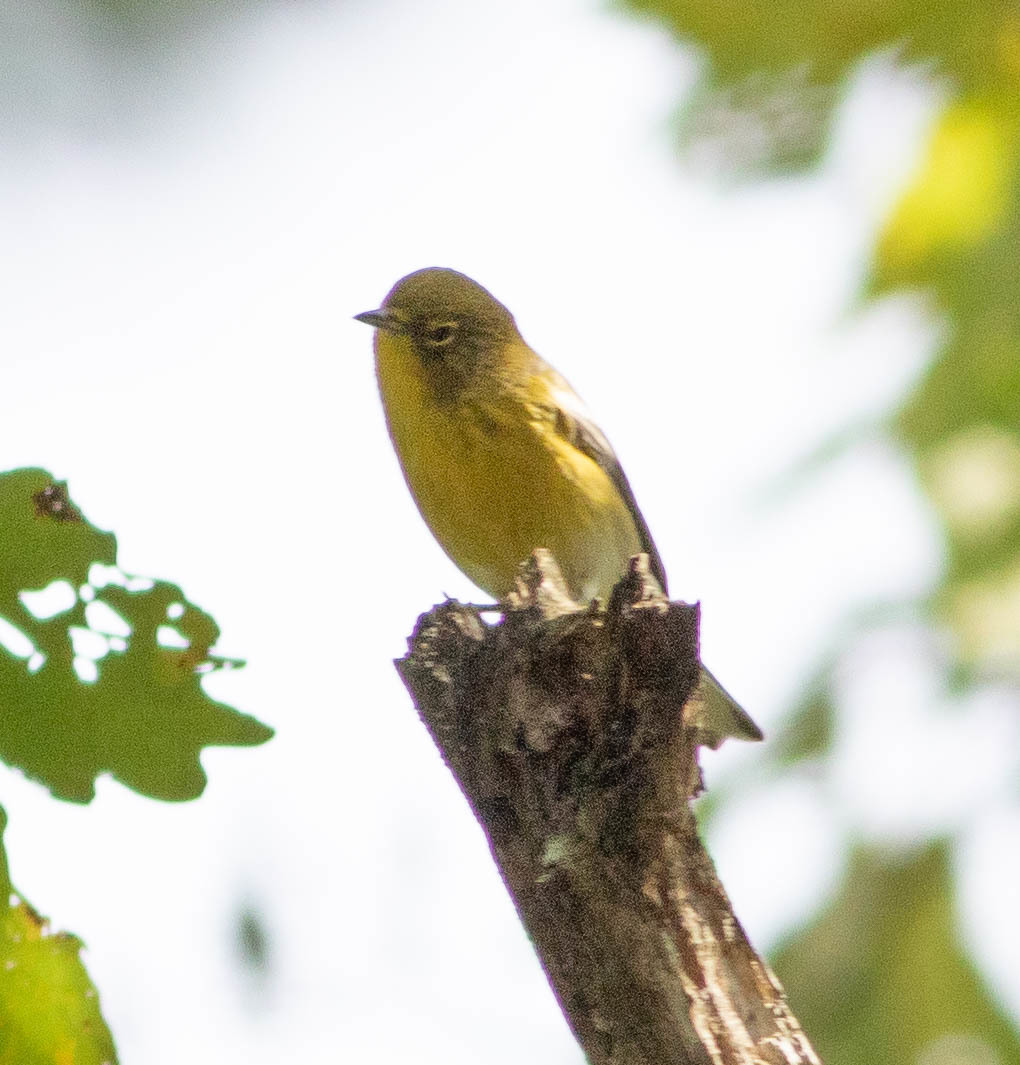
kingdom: Animalia
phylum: Chordata
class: Aves
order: Passeriformes
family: Parulidae
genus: Setophaga
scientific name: Setophaga pinus
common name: Pine warbler
